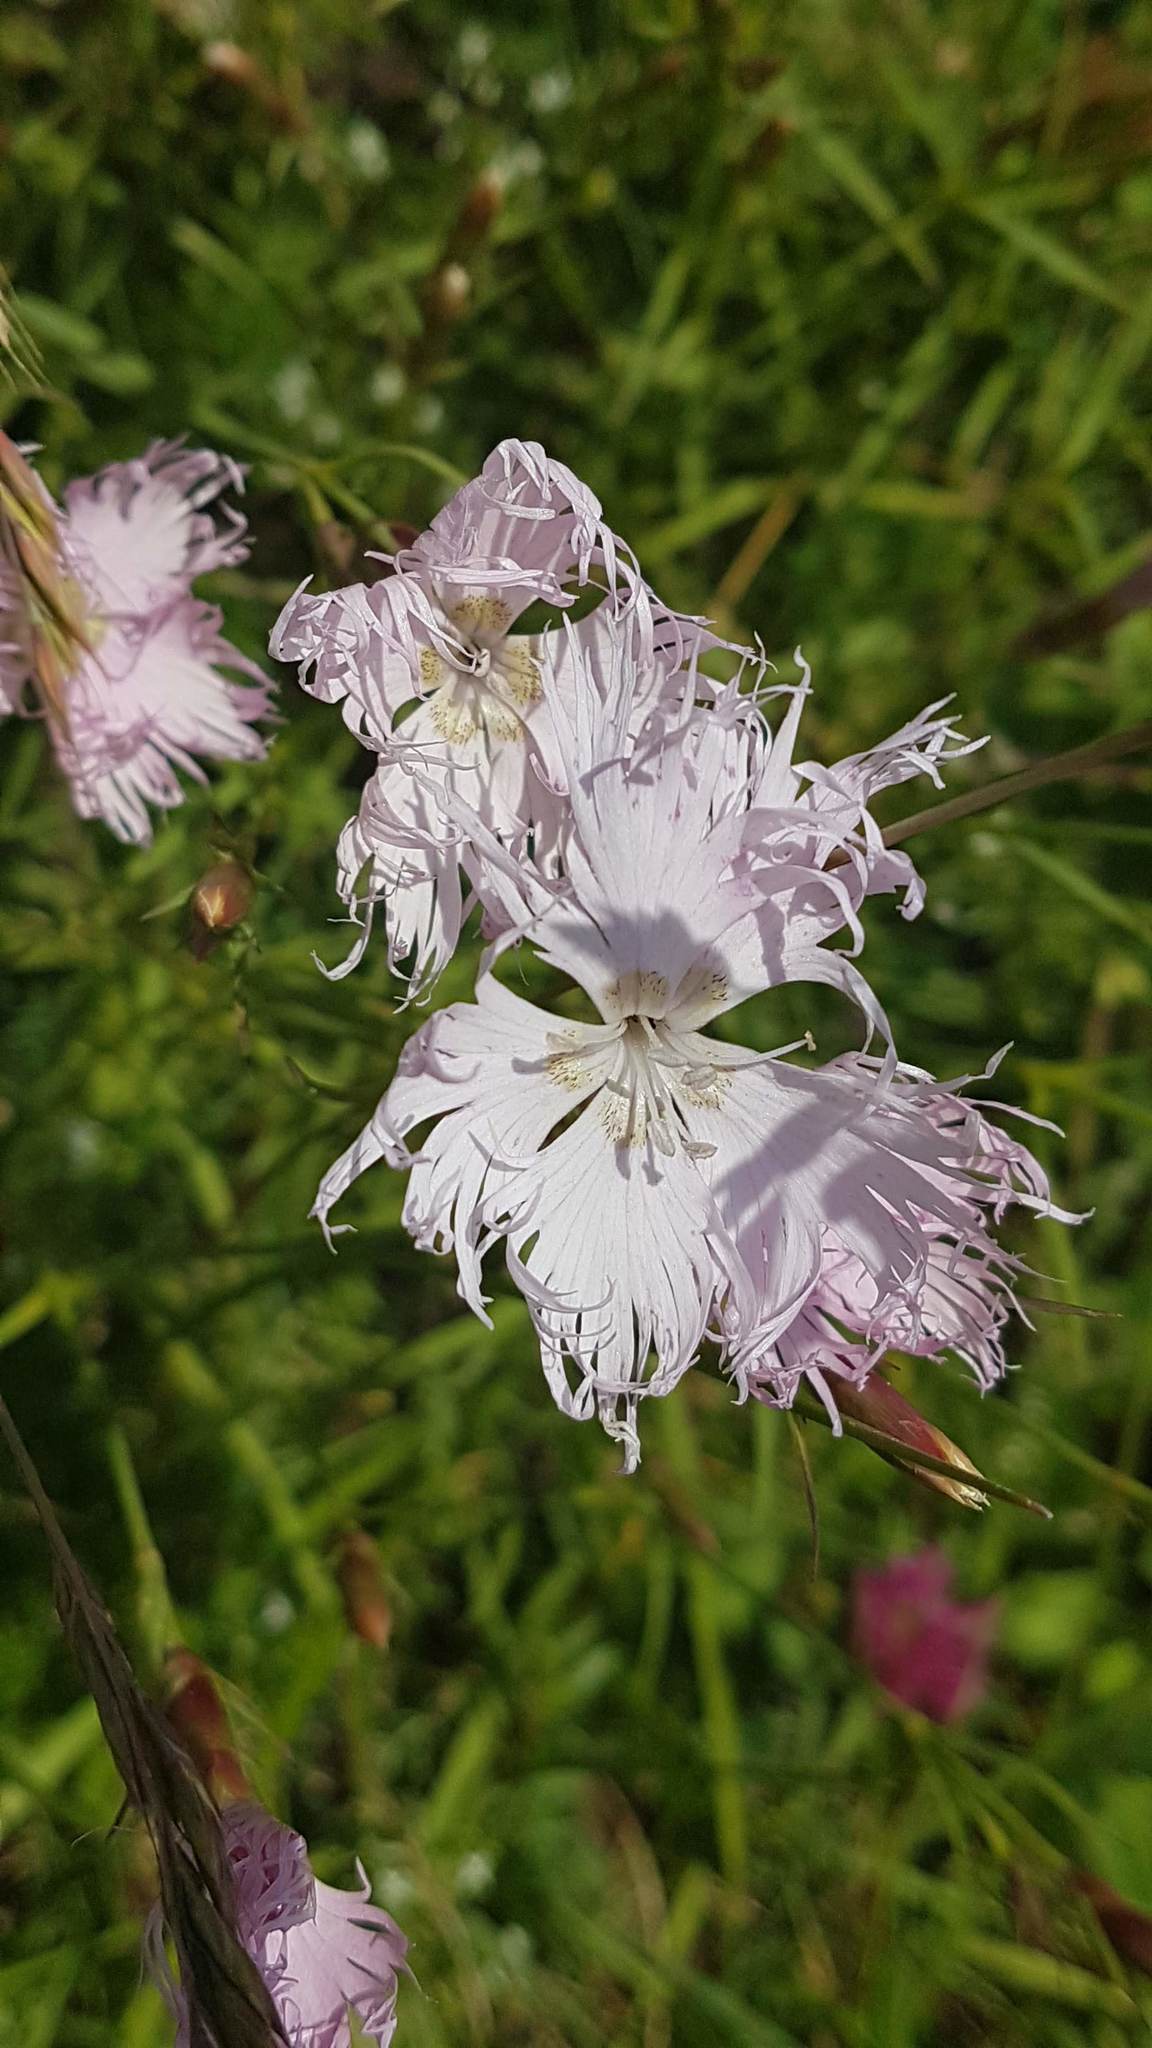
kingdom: Plantae
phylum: Tracheophyta
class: Magnoliopsida
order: Caryophyllales
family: Caryophyllaceae
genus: Dianthus
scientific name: Dianthus hyssopifolius
